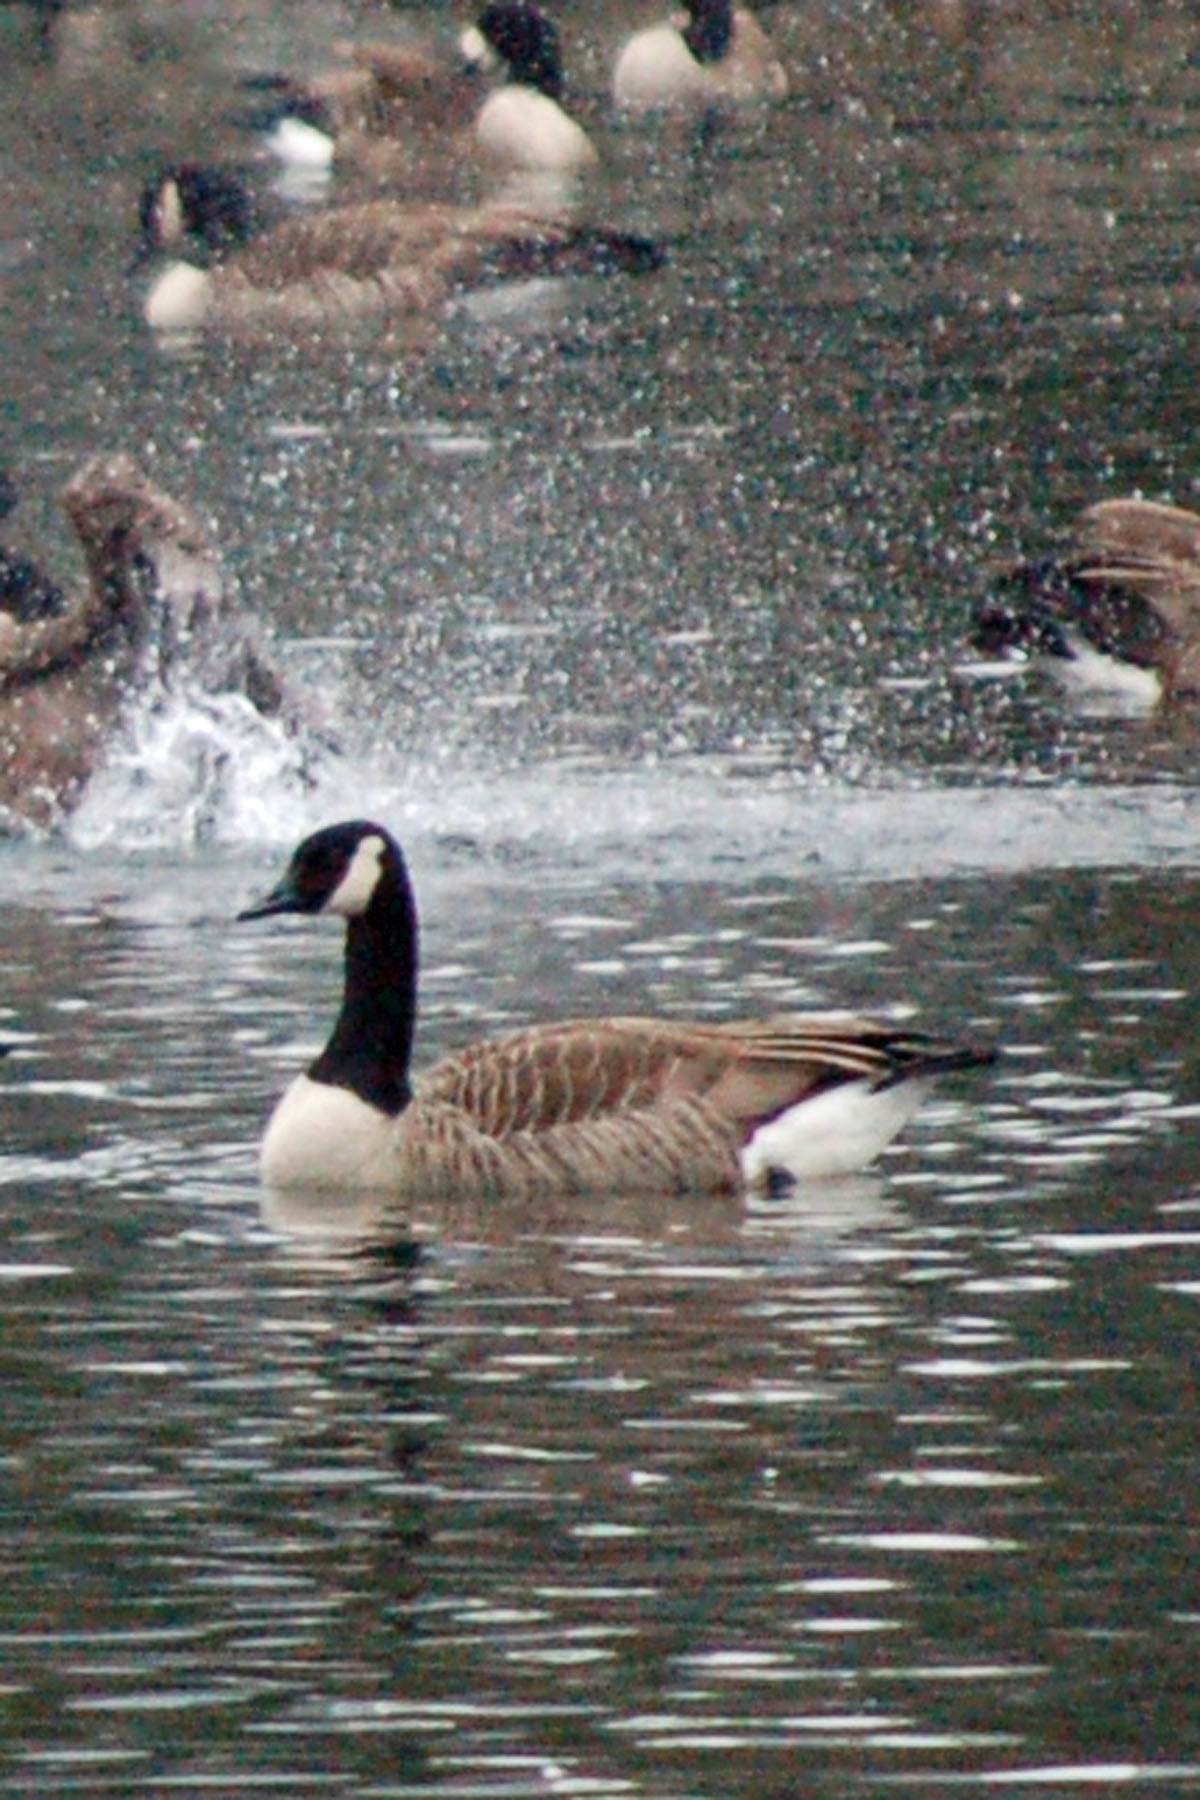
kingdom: Animalia
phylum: Chordata
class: Aves
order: Anseriformes
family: Anatidae
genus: Branta
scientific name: Branta canadensis
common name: Canada goose
